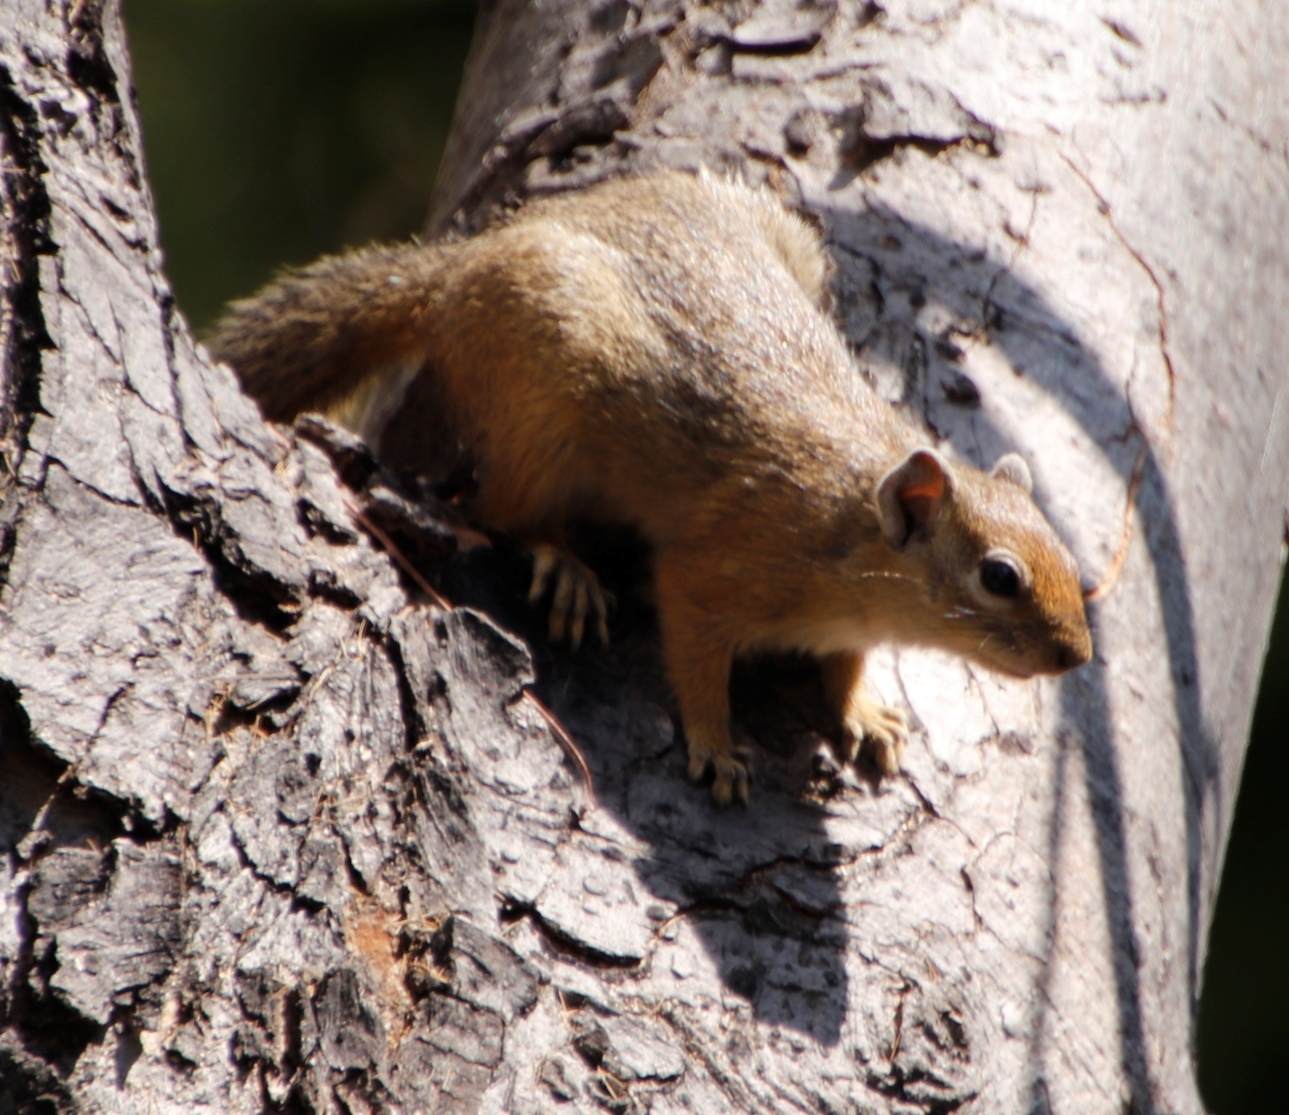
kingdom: Animalia
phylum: Chordata
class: Mammalia
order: Rodentia
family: Sciuridae
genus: Paraxerus
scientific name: Paraxerus cepapi
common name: Smith's bush squirrel
